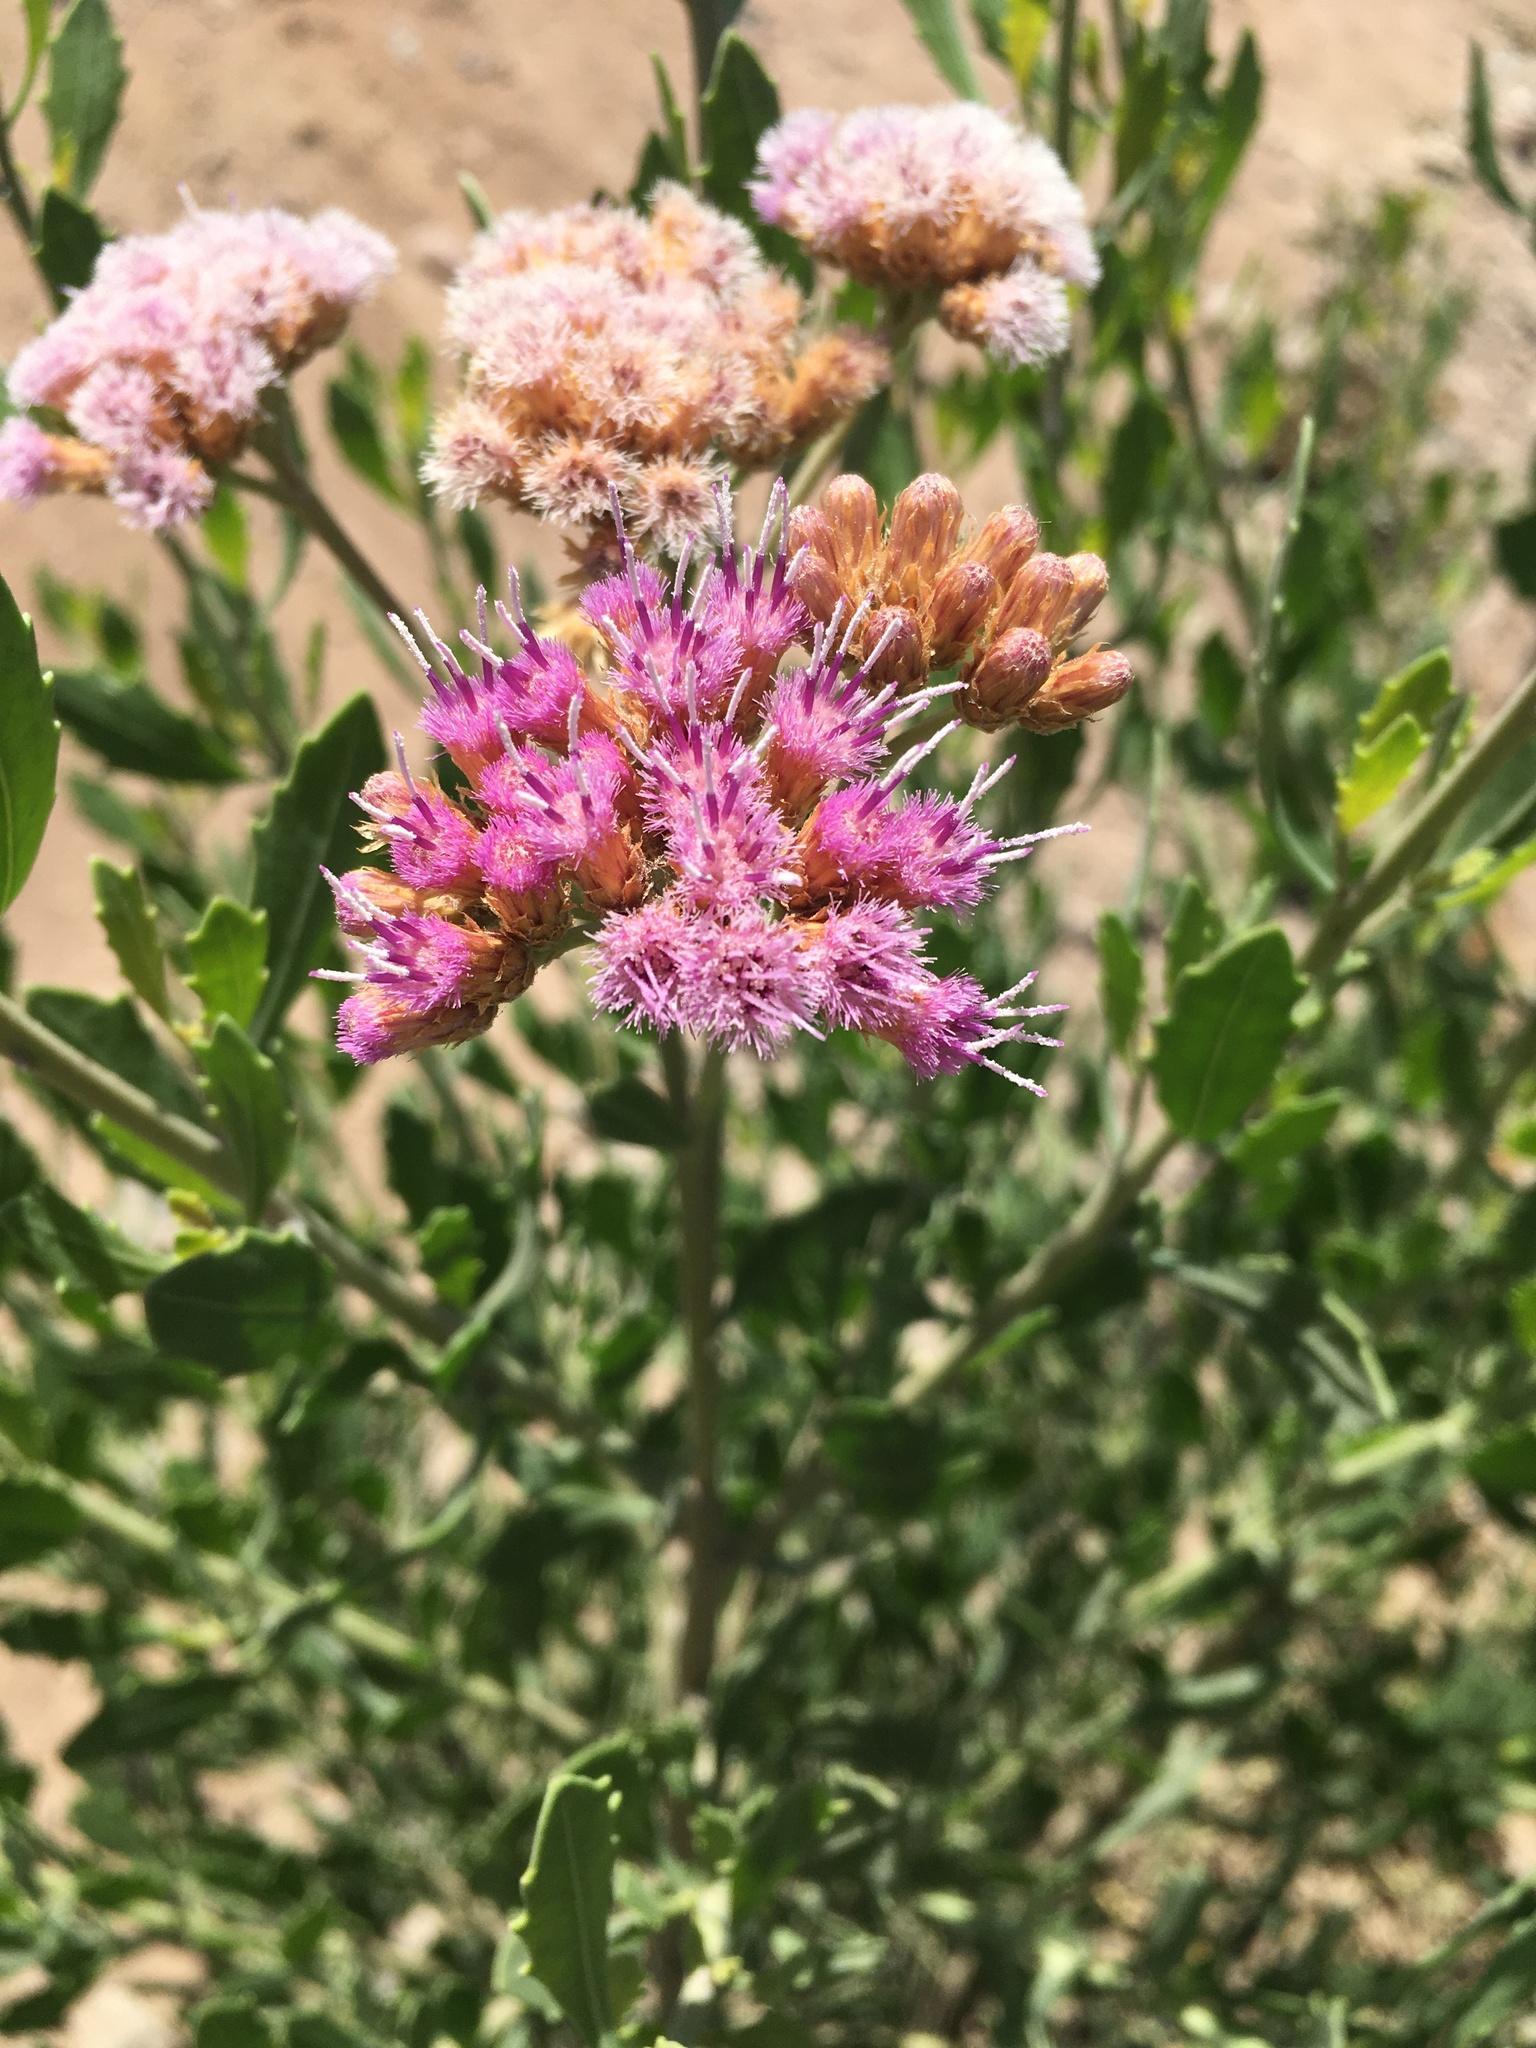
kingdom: Plantae
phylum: Tracheophyta
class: Magnoliopsida
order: Asterales
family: Asteraceae
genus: Tessaria
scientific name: Tessaria absinthioides
